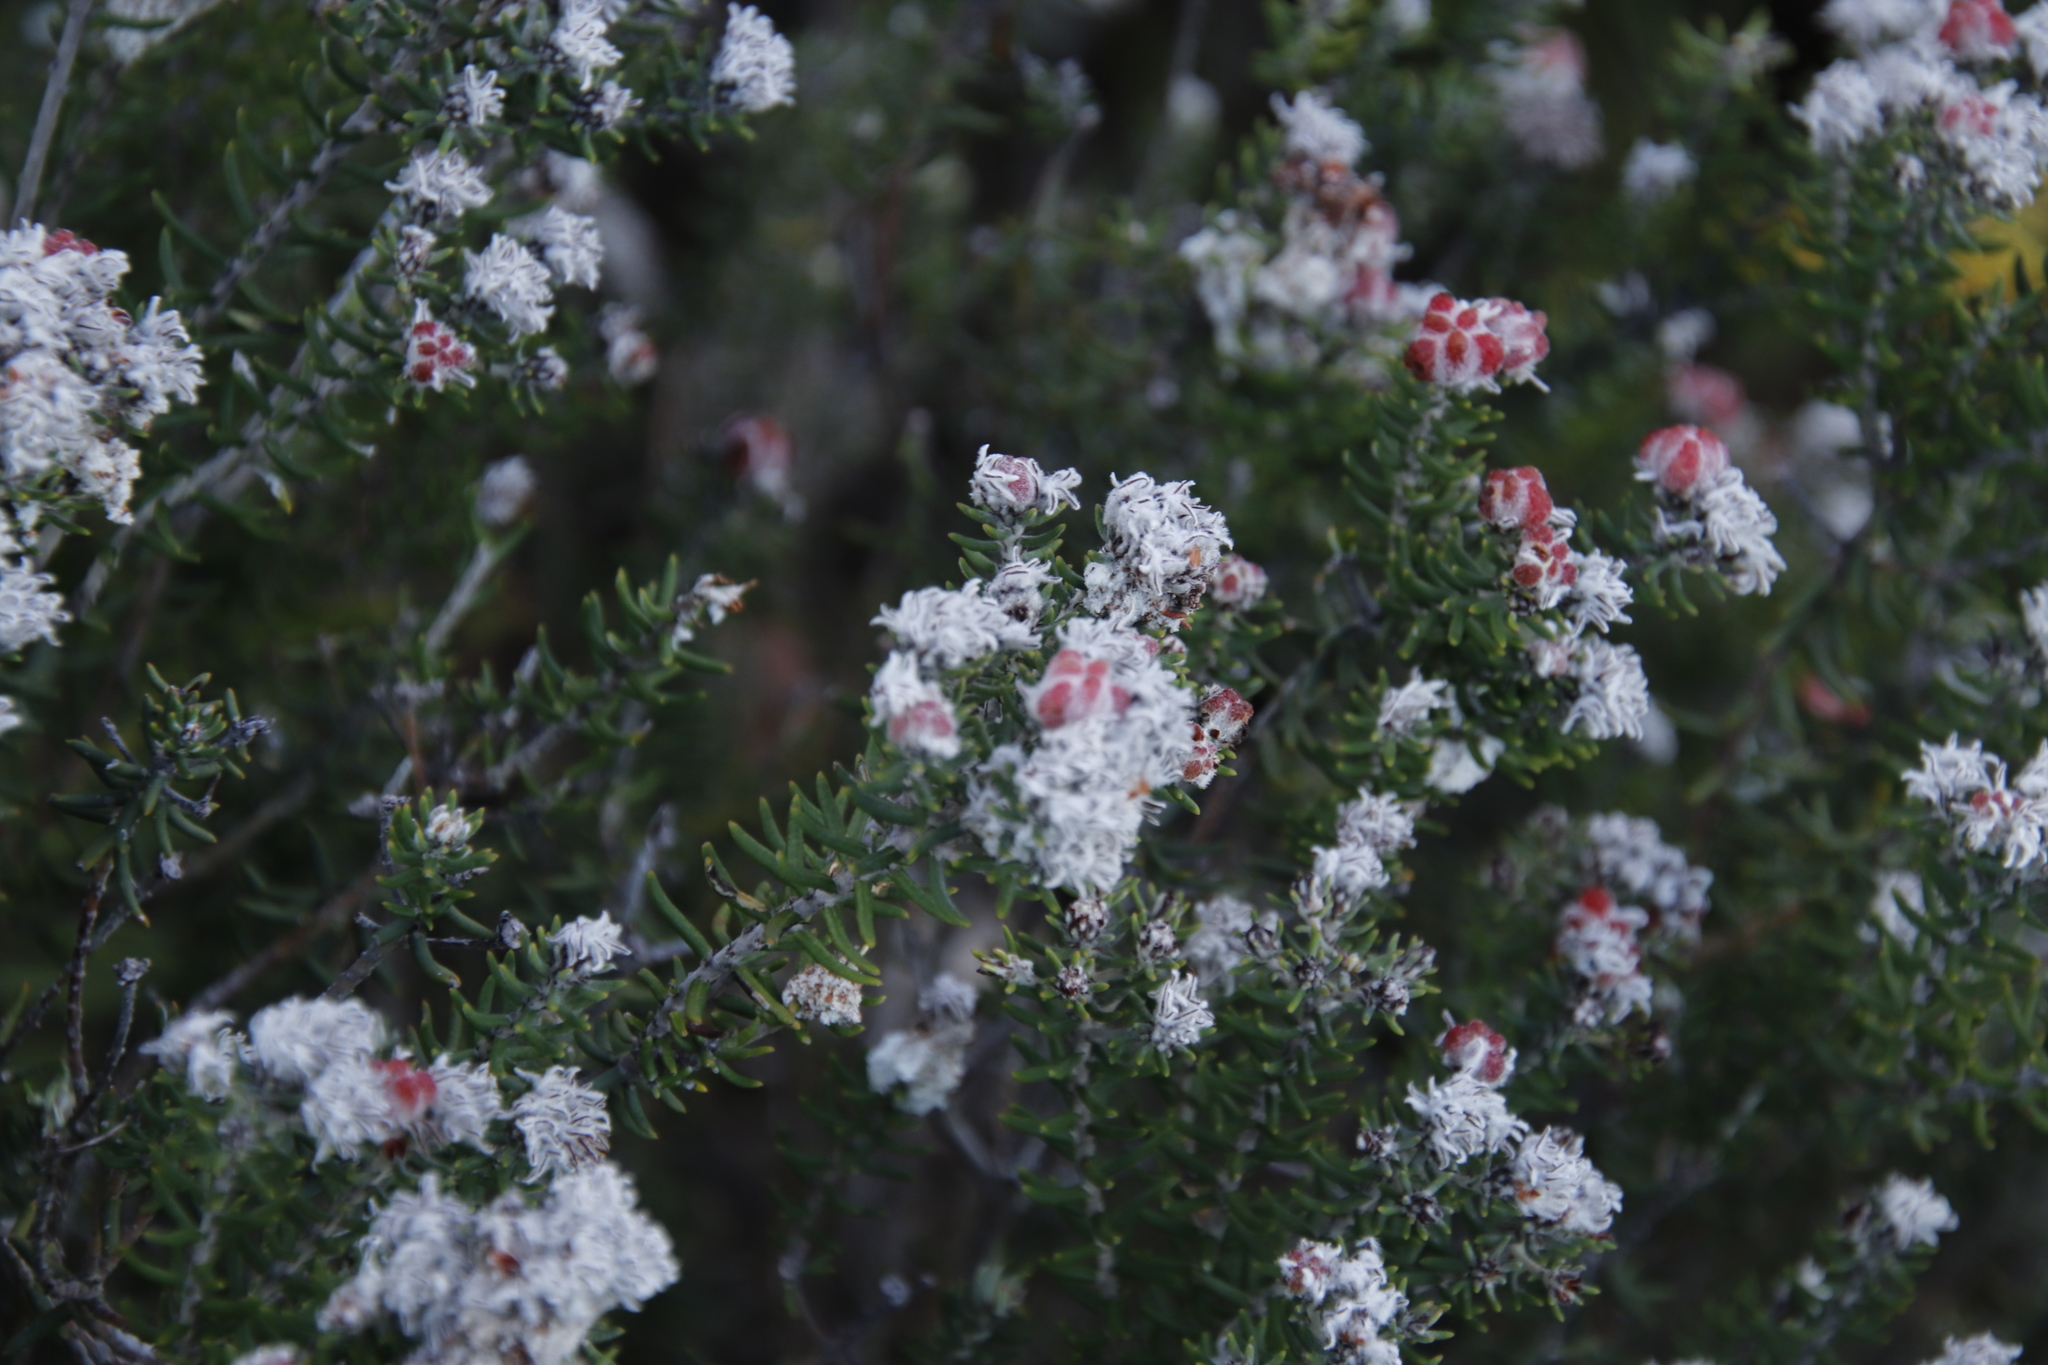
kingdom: Plantae
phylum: Tracheophyta
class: Magnoliopsida
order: Rosales
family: Rhamnaceae
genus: Trichocephalus
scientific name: Trichocephalus stipularis
